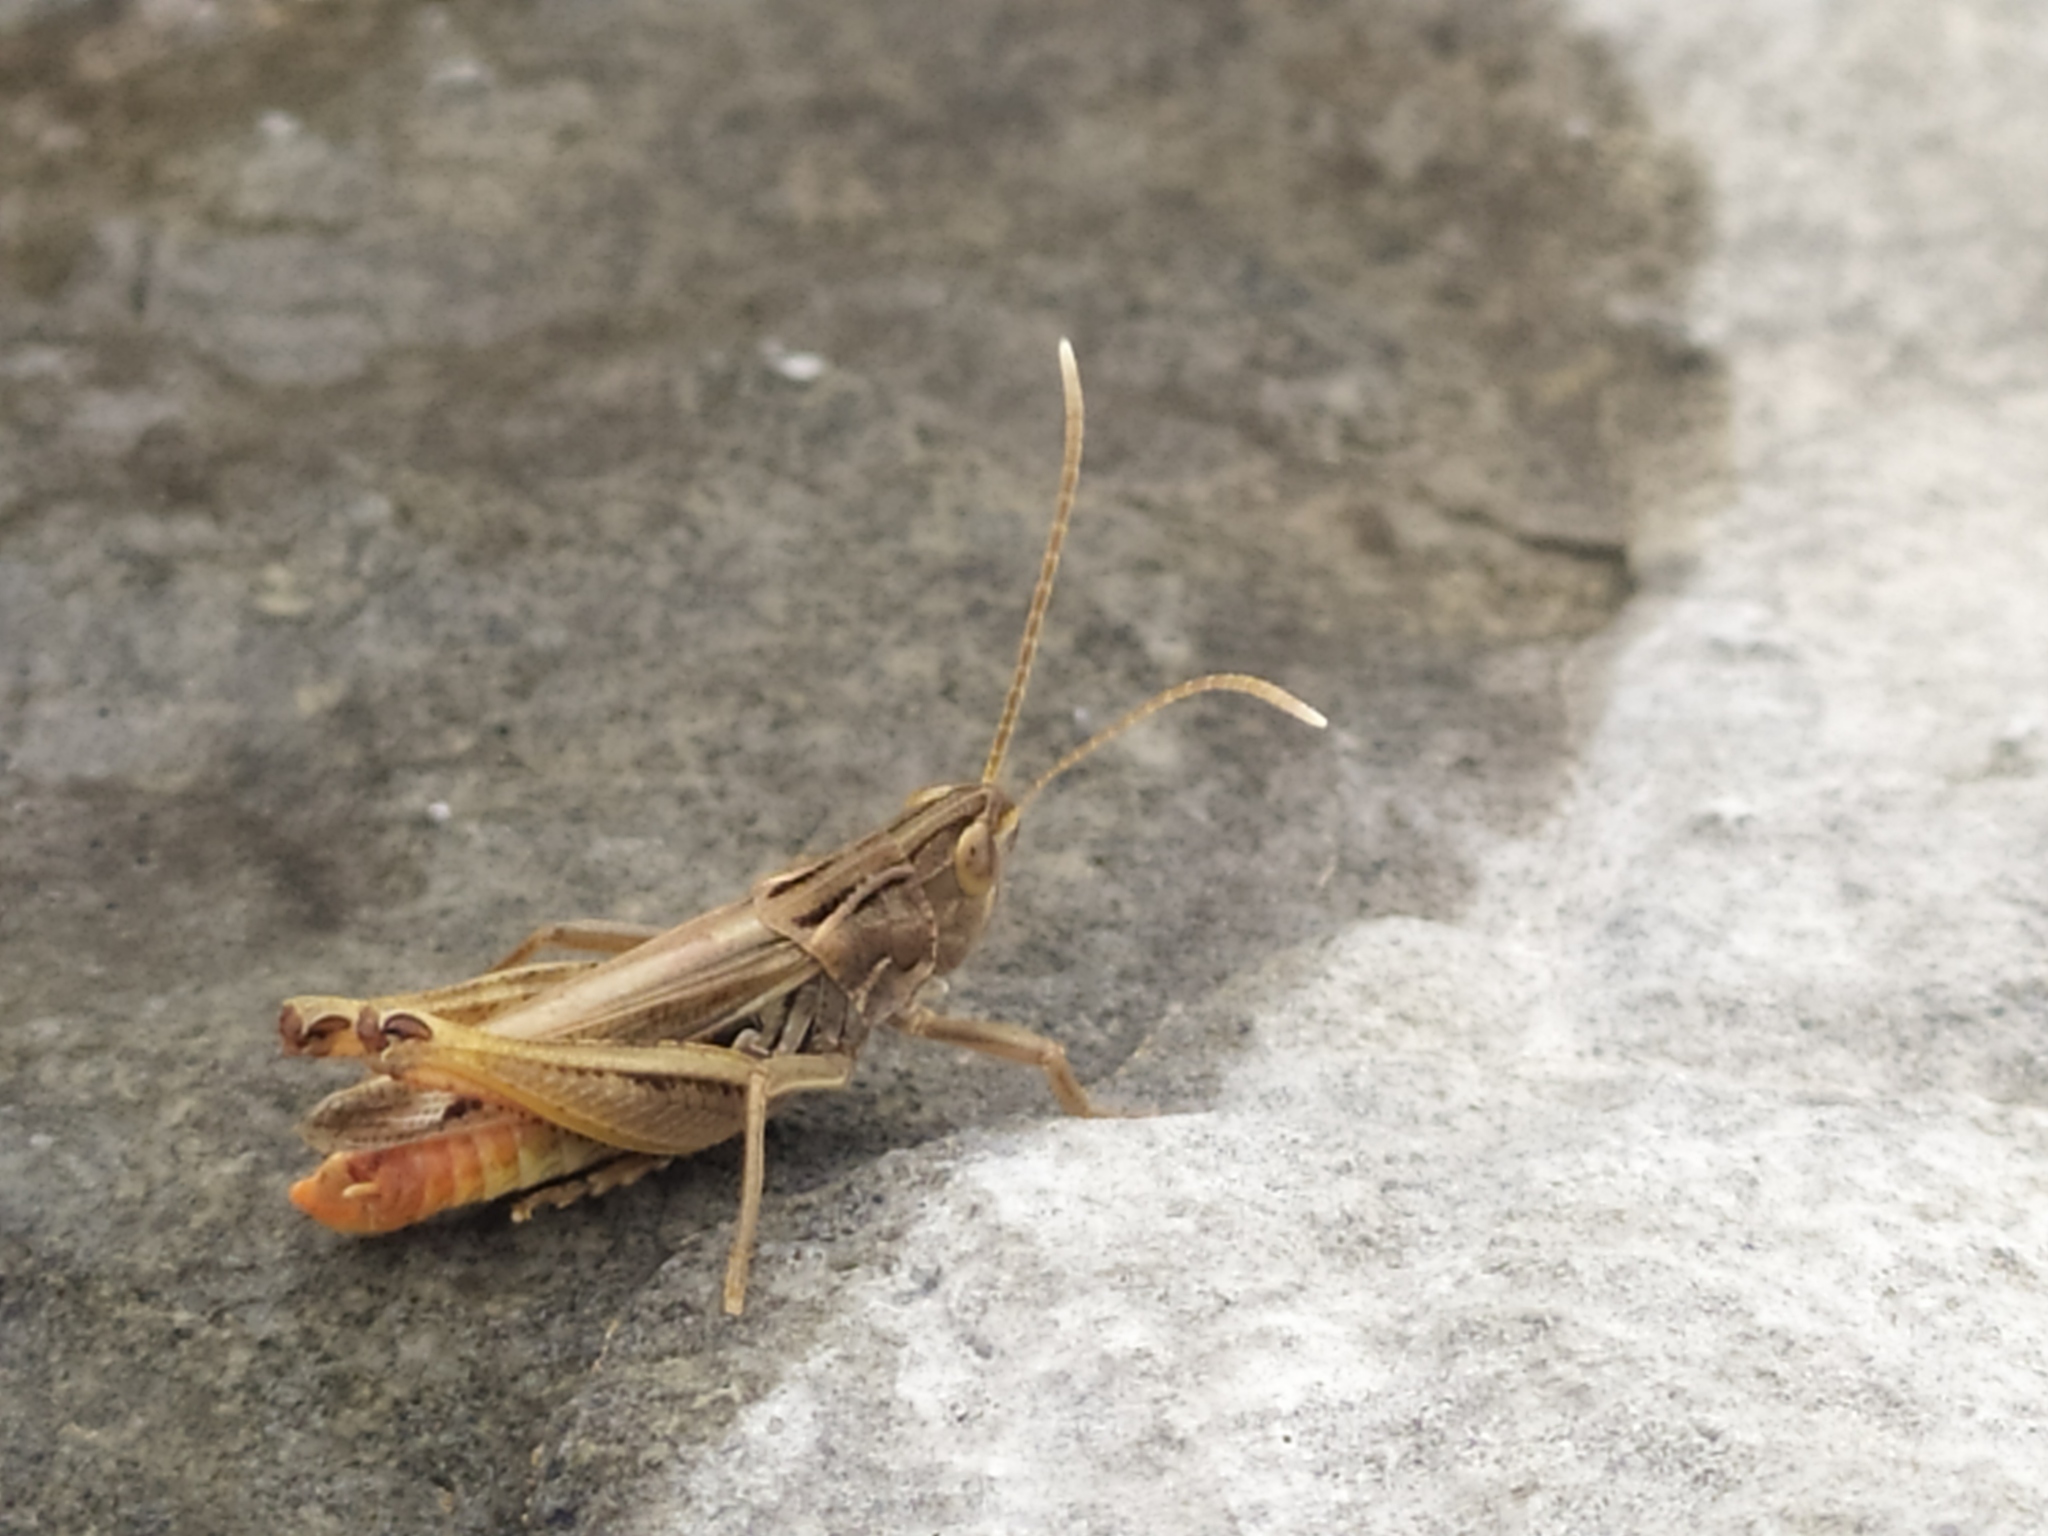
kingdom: Animalia
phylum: Arthropoda
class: Insecta
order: Orthoptera
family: Acrididae
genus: Stenobothrus
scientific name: Stenobothrus nigromaculatus
